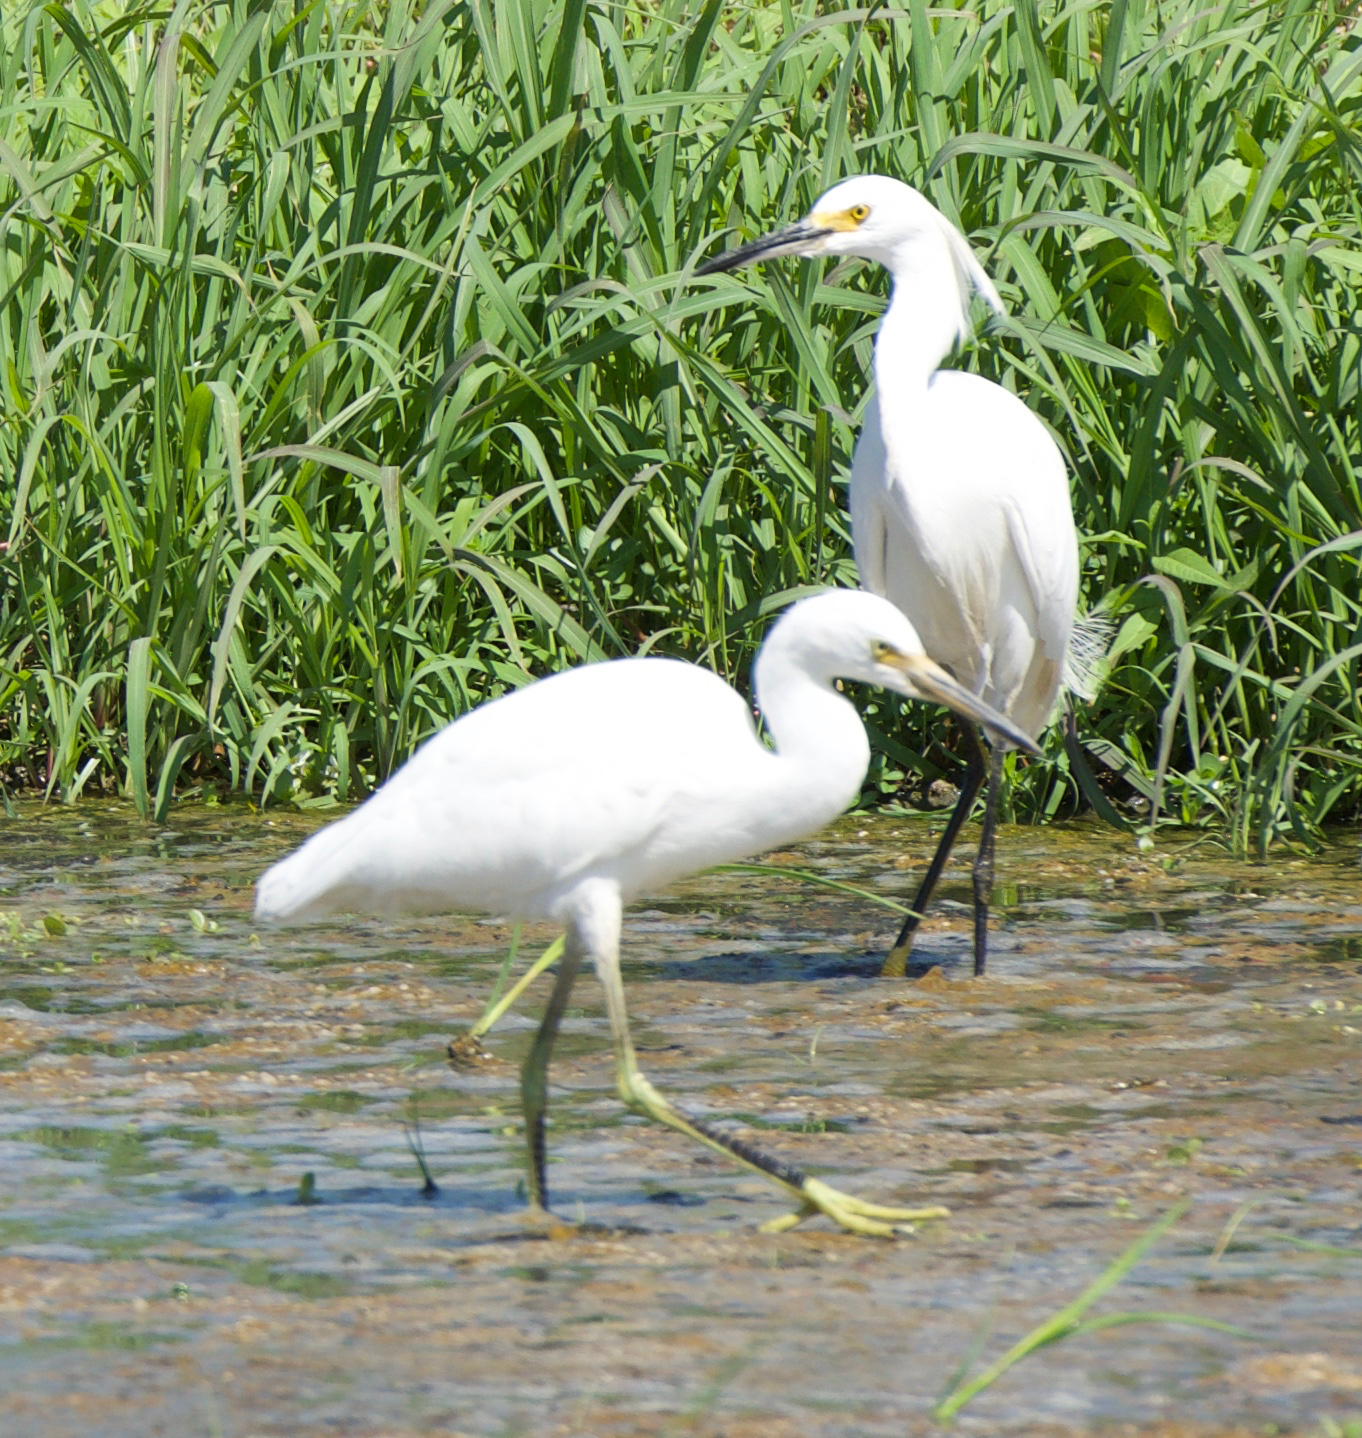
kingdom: Animalia
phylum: Chordata
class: Aves
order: Pelecaniformes
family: Ardeidae
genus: Egretta
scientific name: Egretta thula
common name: Snowy egret
